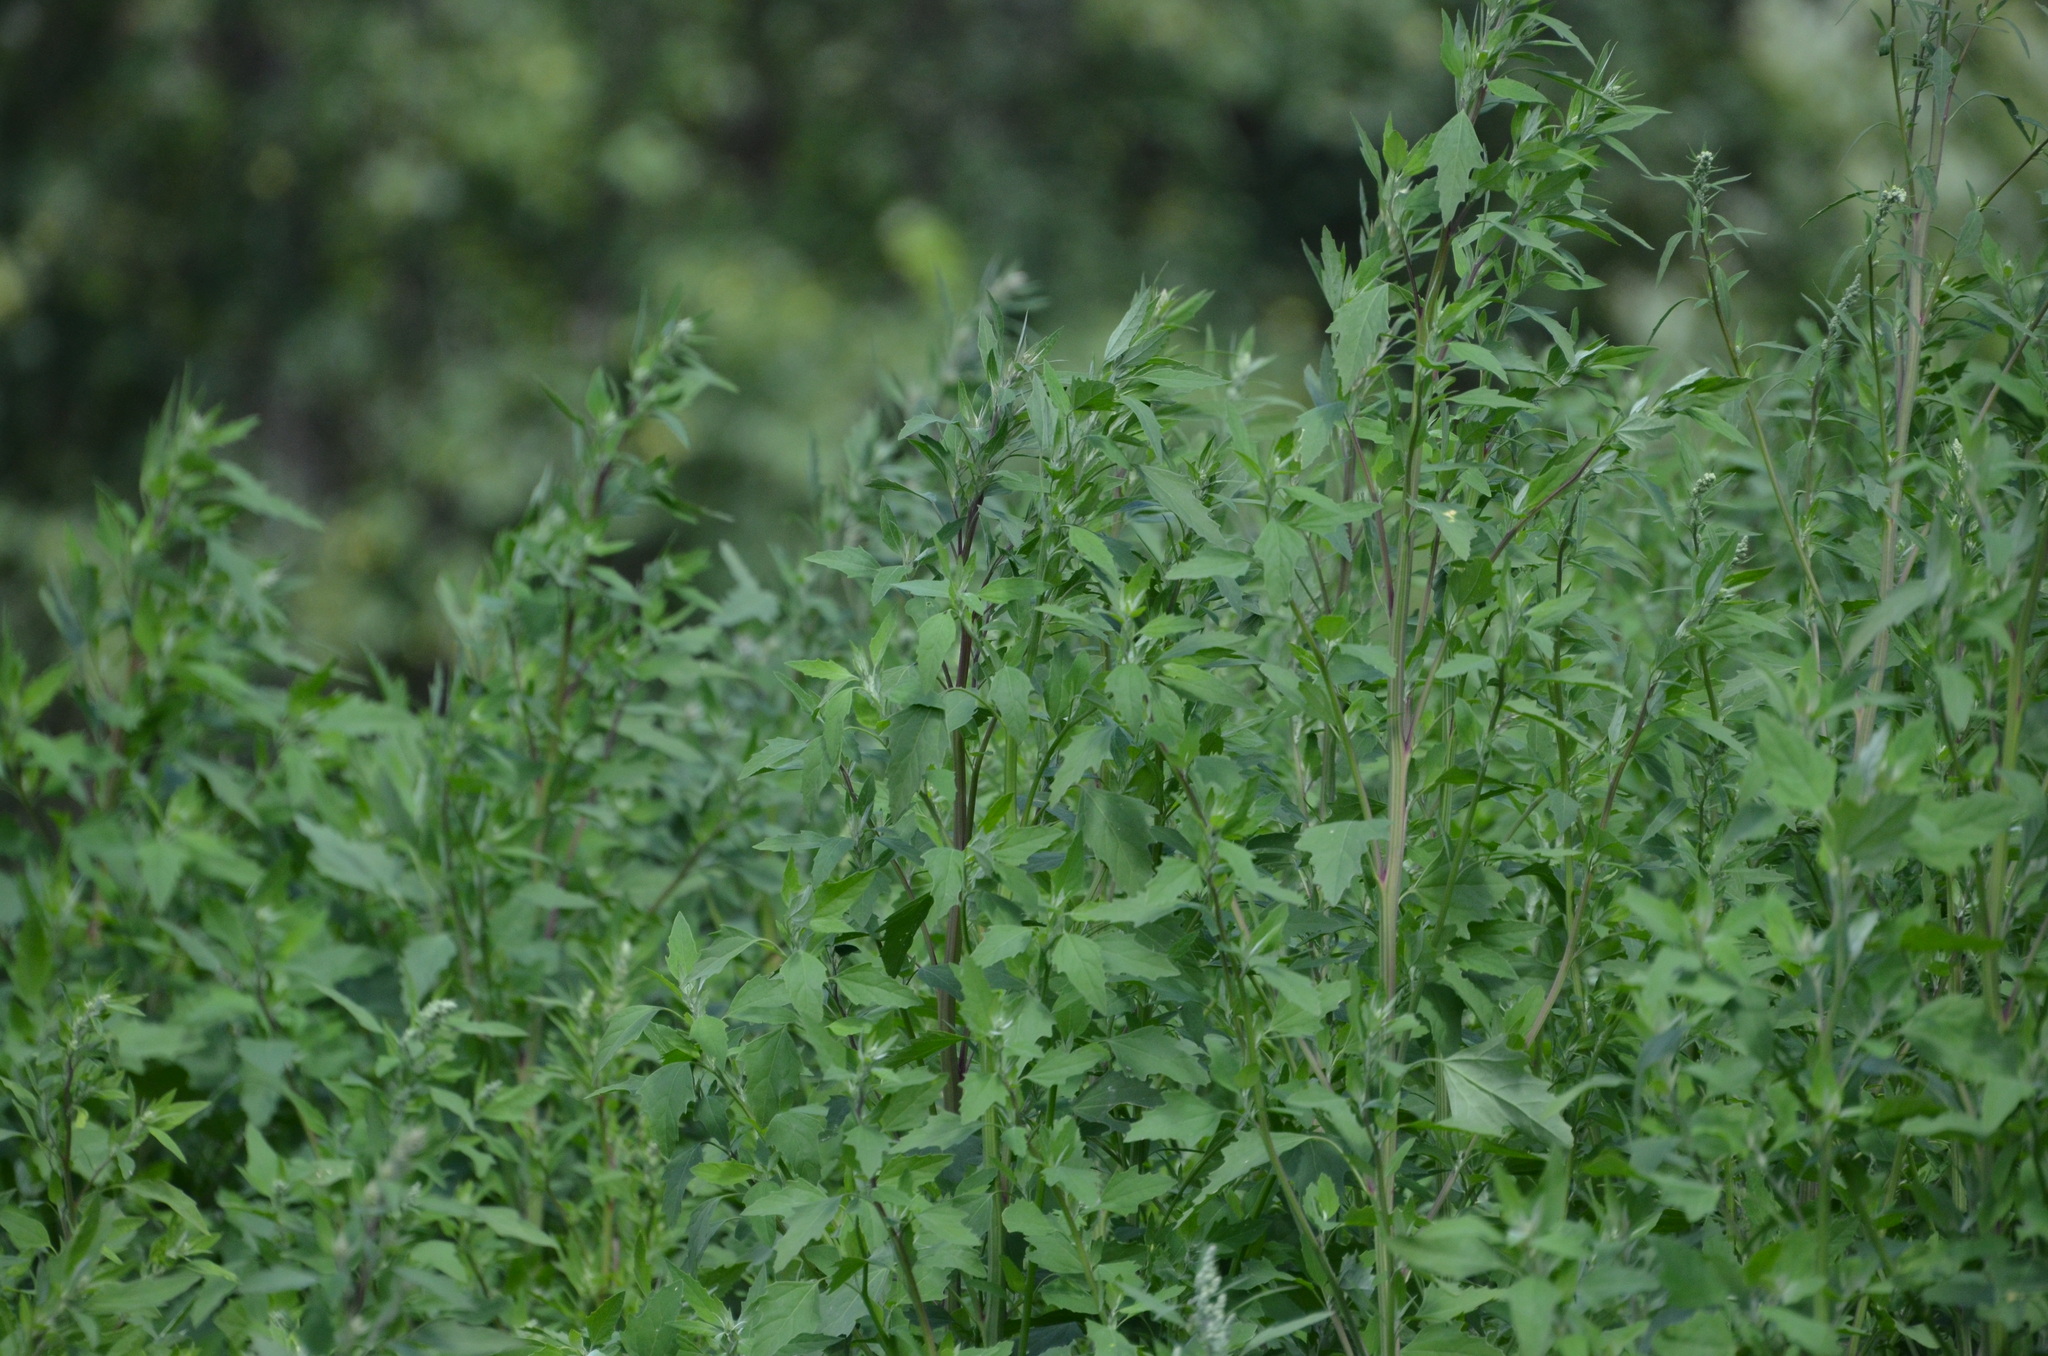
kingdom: Plantae
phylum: Tracheophyta
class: Magnoliopsida
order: Caryophyllales
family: Amaranthaceae
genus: Chenopodium
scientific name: Chenopodium album
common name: Fat-hen
